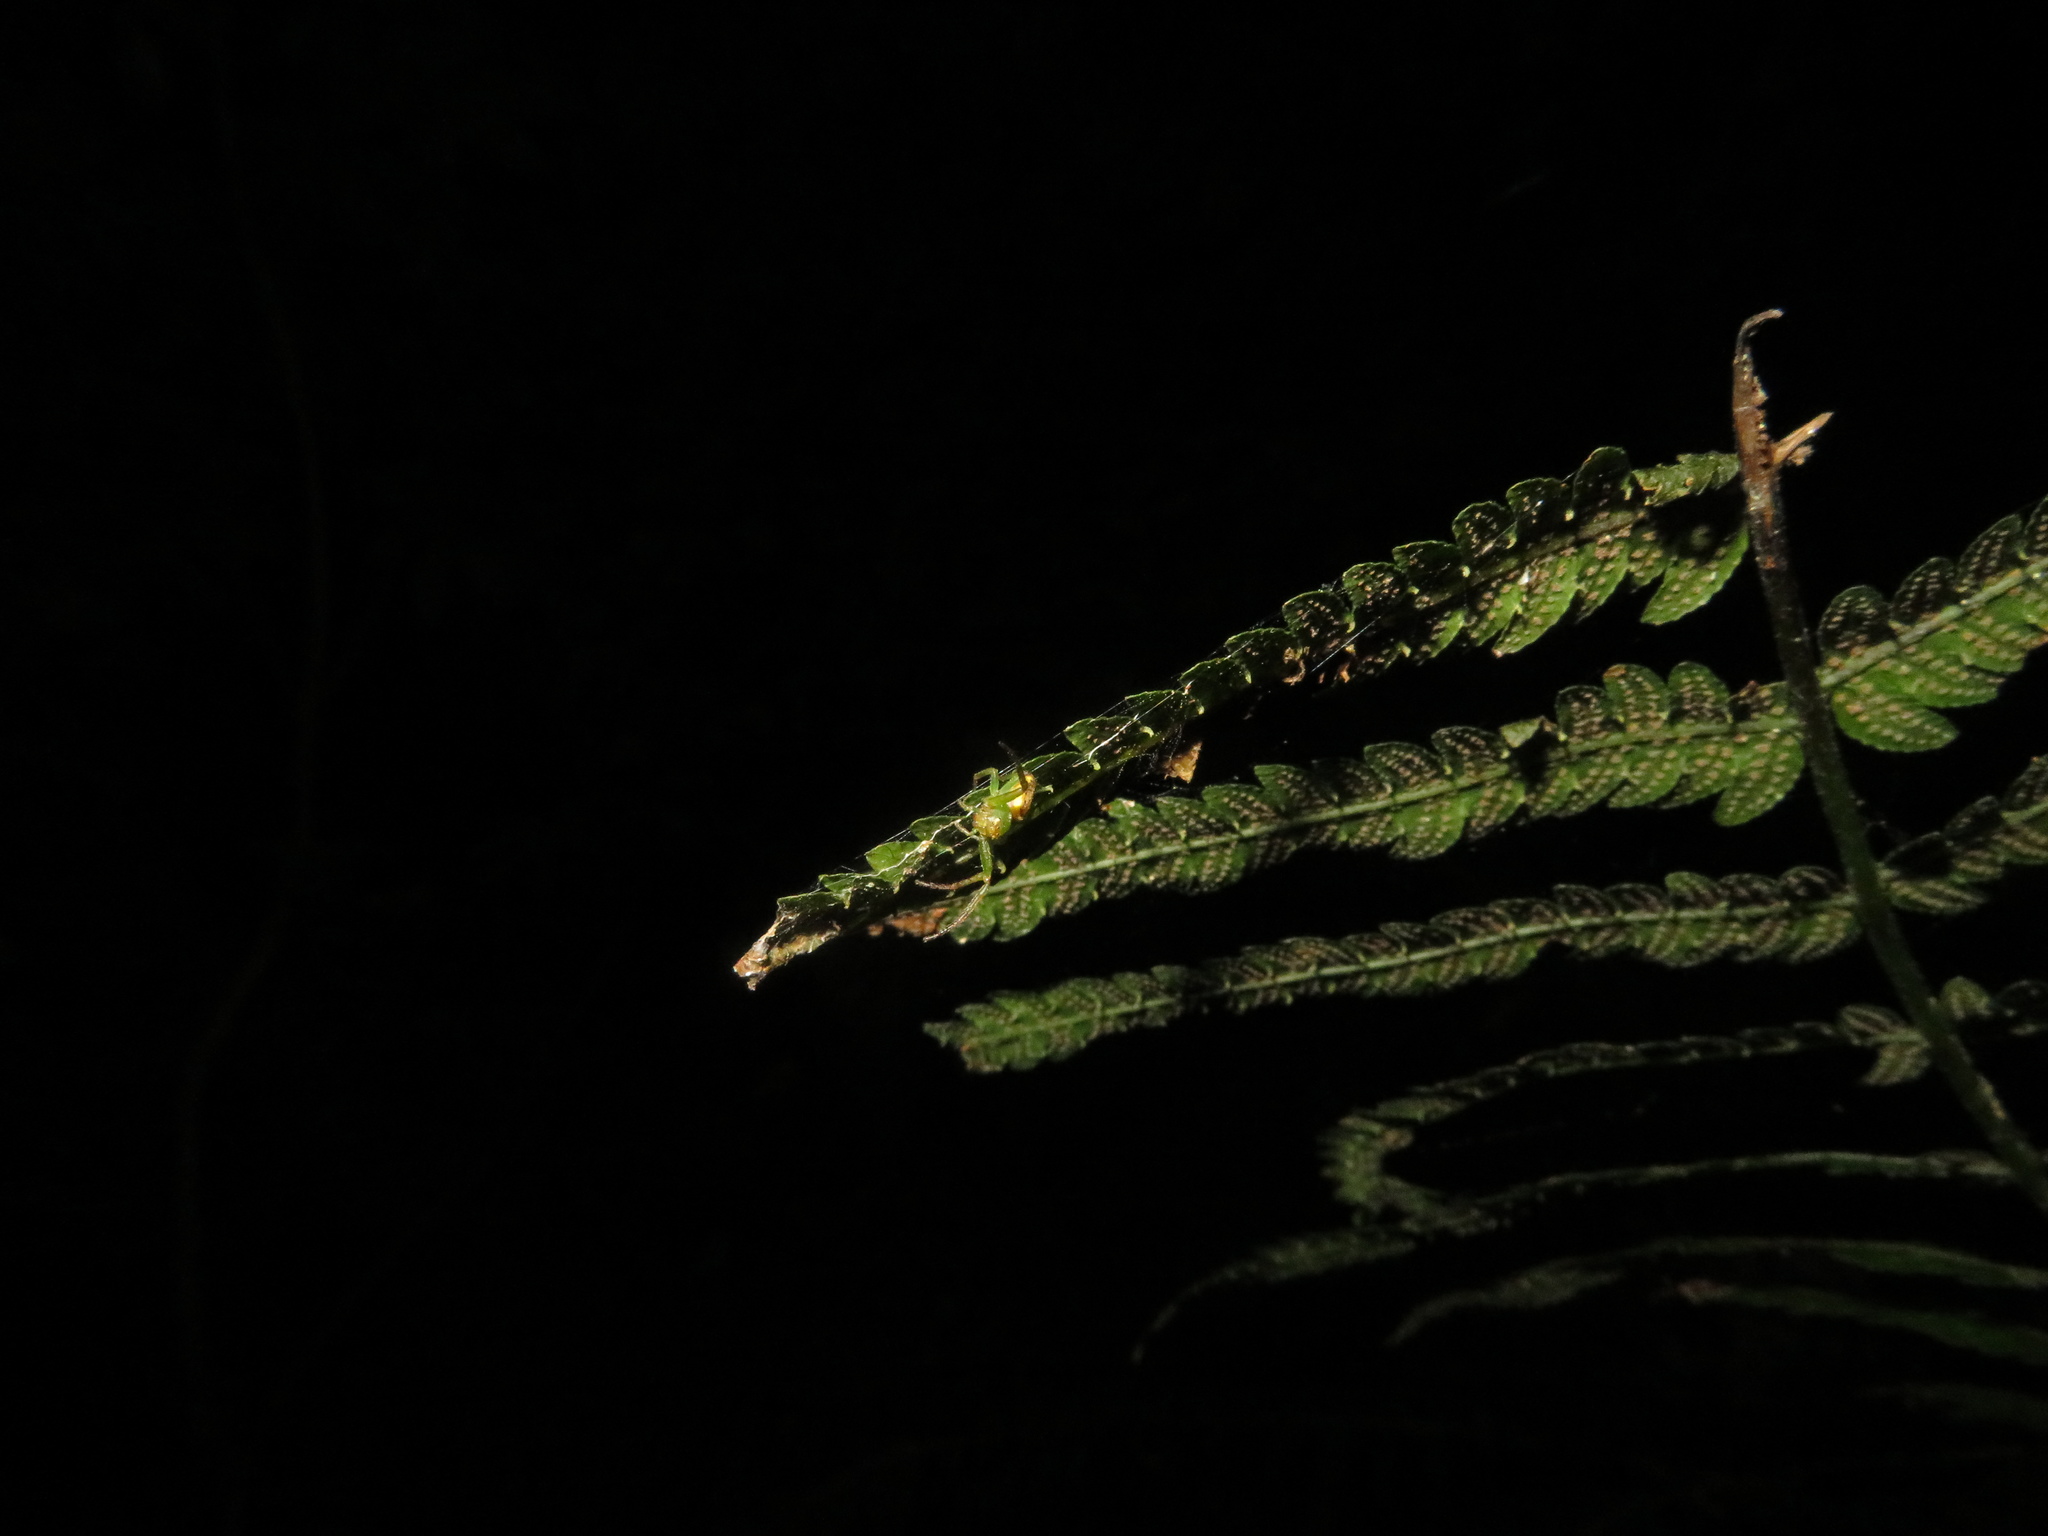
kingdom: Animalia
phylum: Arthropoda
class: Arachnida
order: Opiliones
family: Neopilionidae
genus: Forsteropsalis
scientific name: Forsteropsalis inconstans
